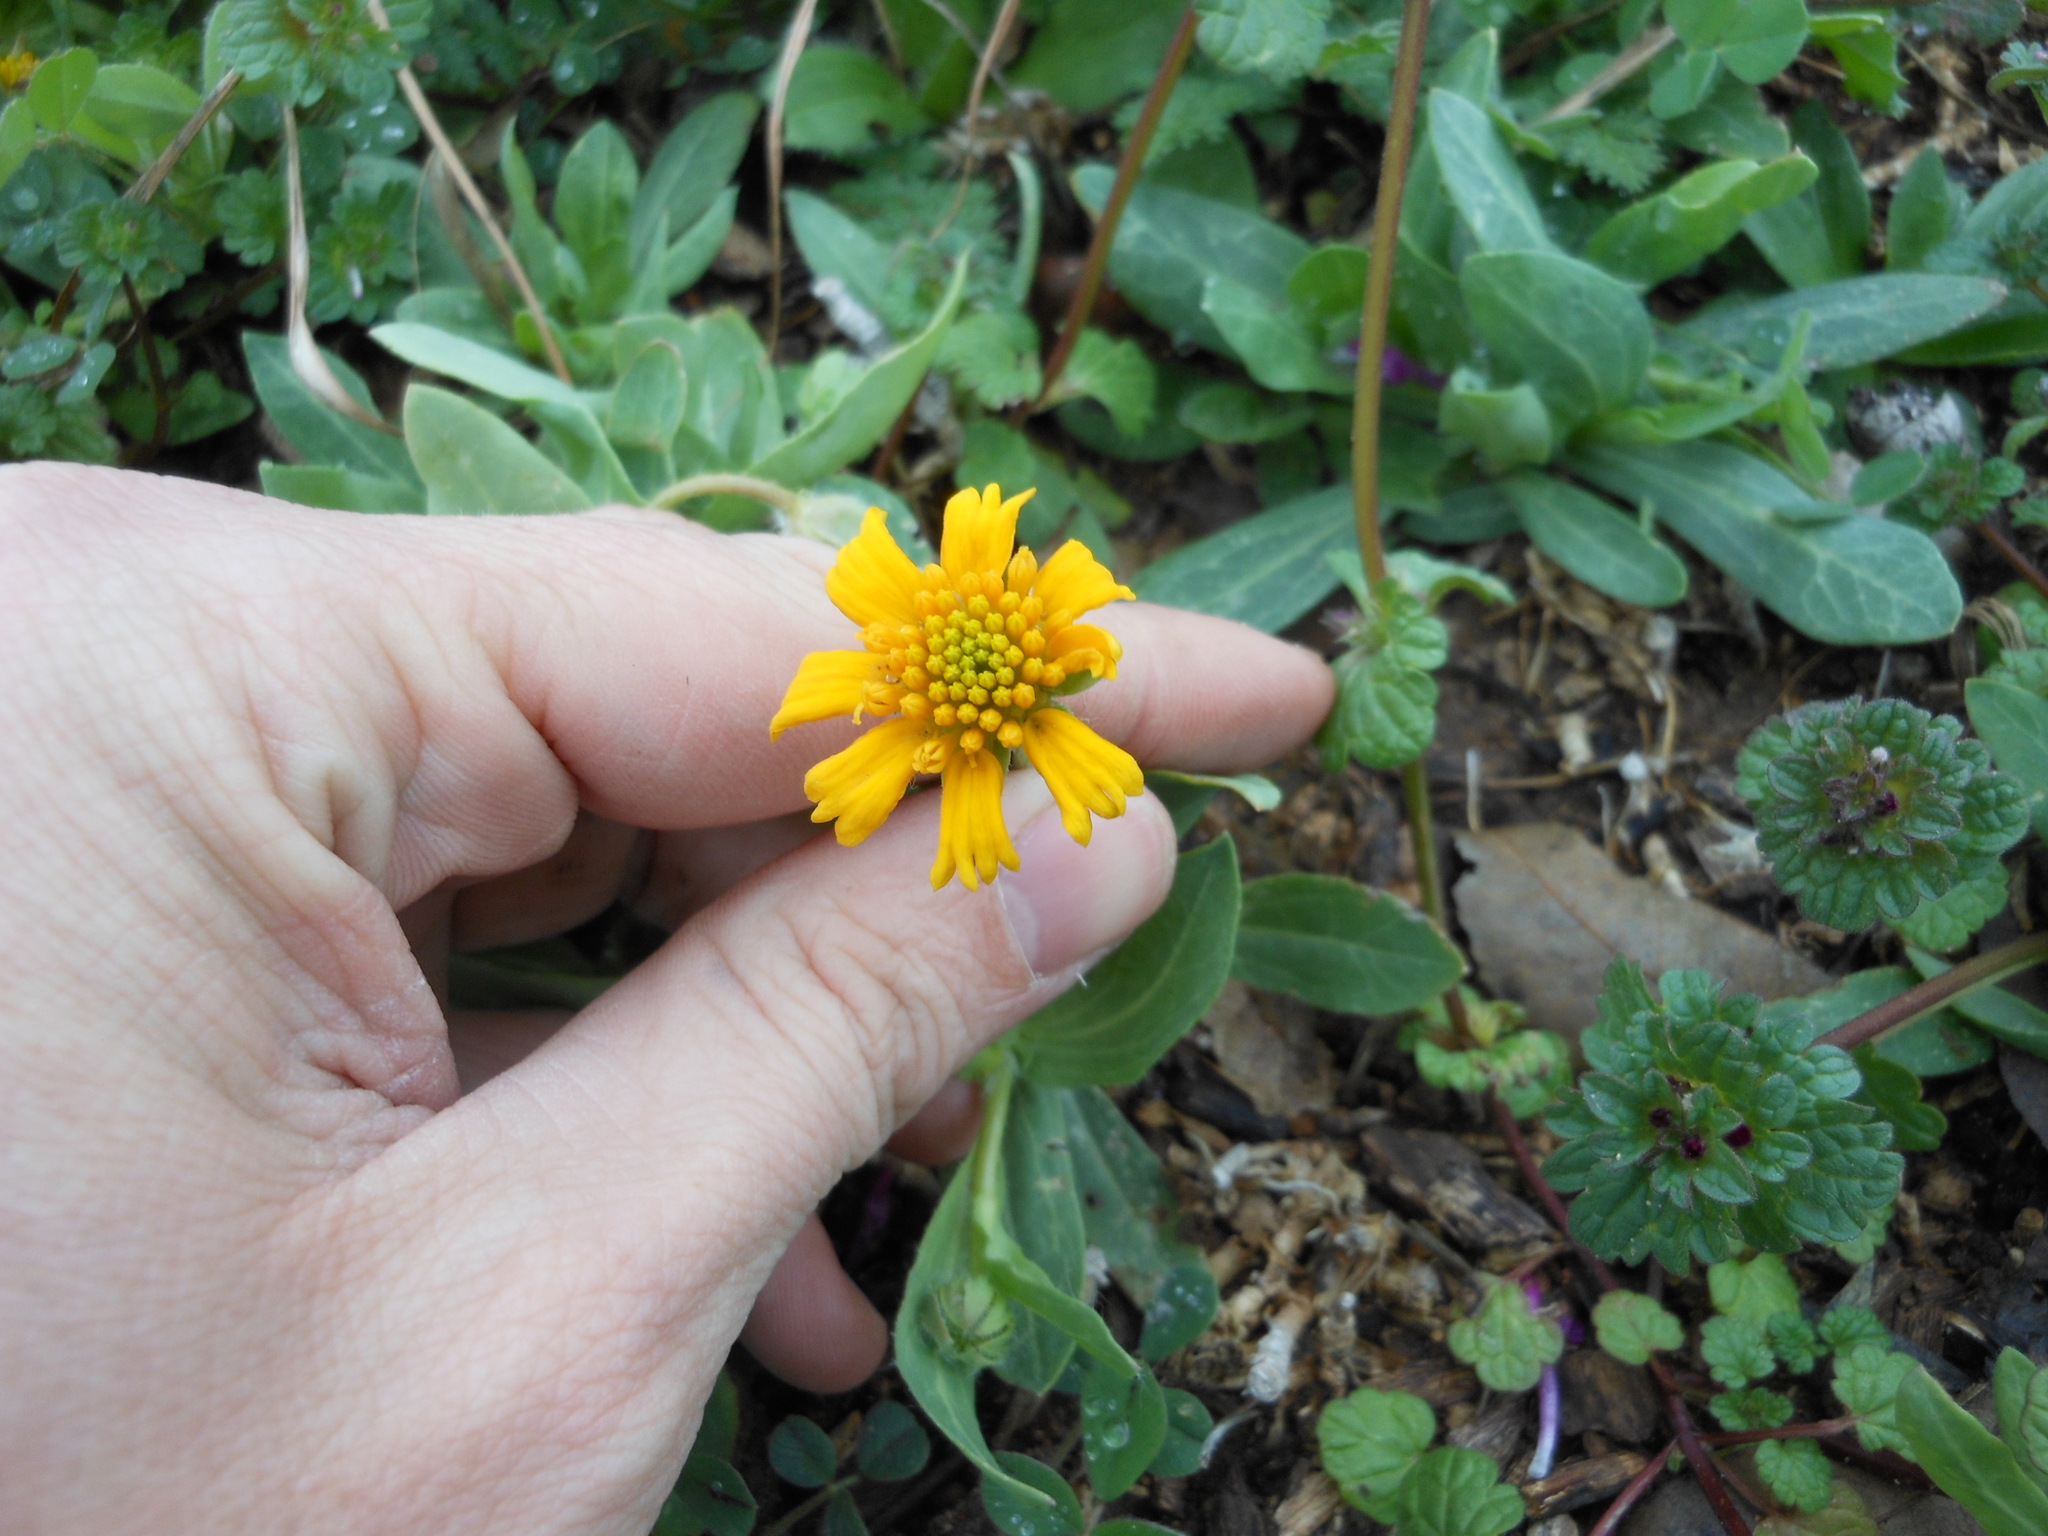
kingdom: Plantae
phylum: Tracheophyta
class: Magnoliopsida
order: Asterales
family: Asteraceae
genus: Amblyolepis
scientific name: Amblyolepis setigera
